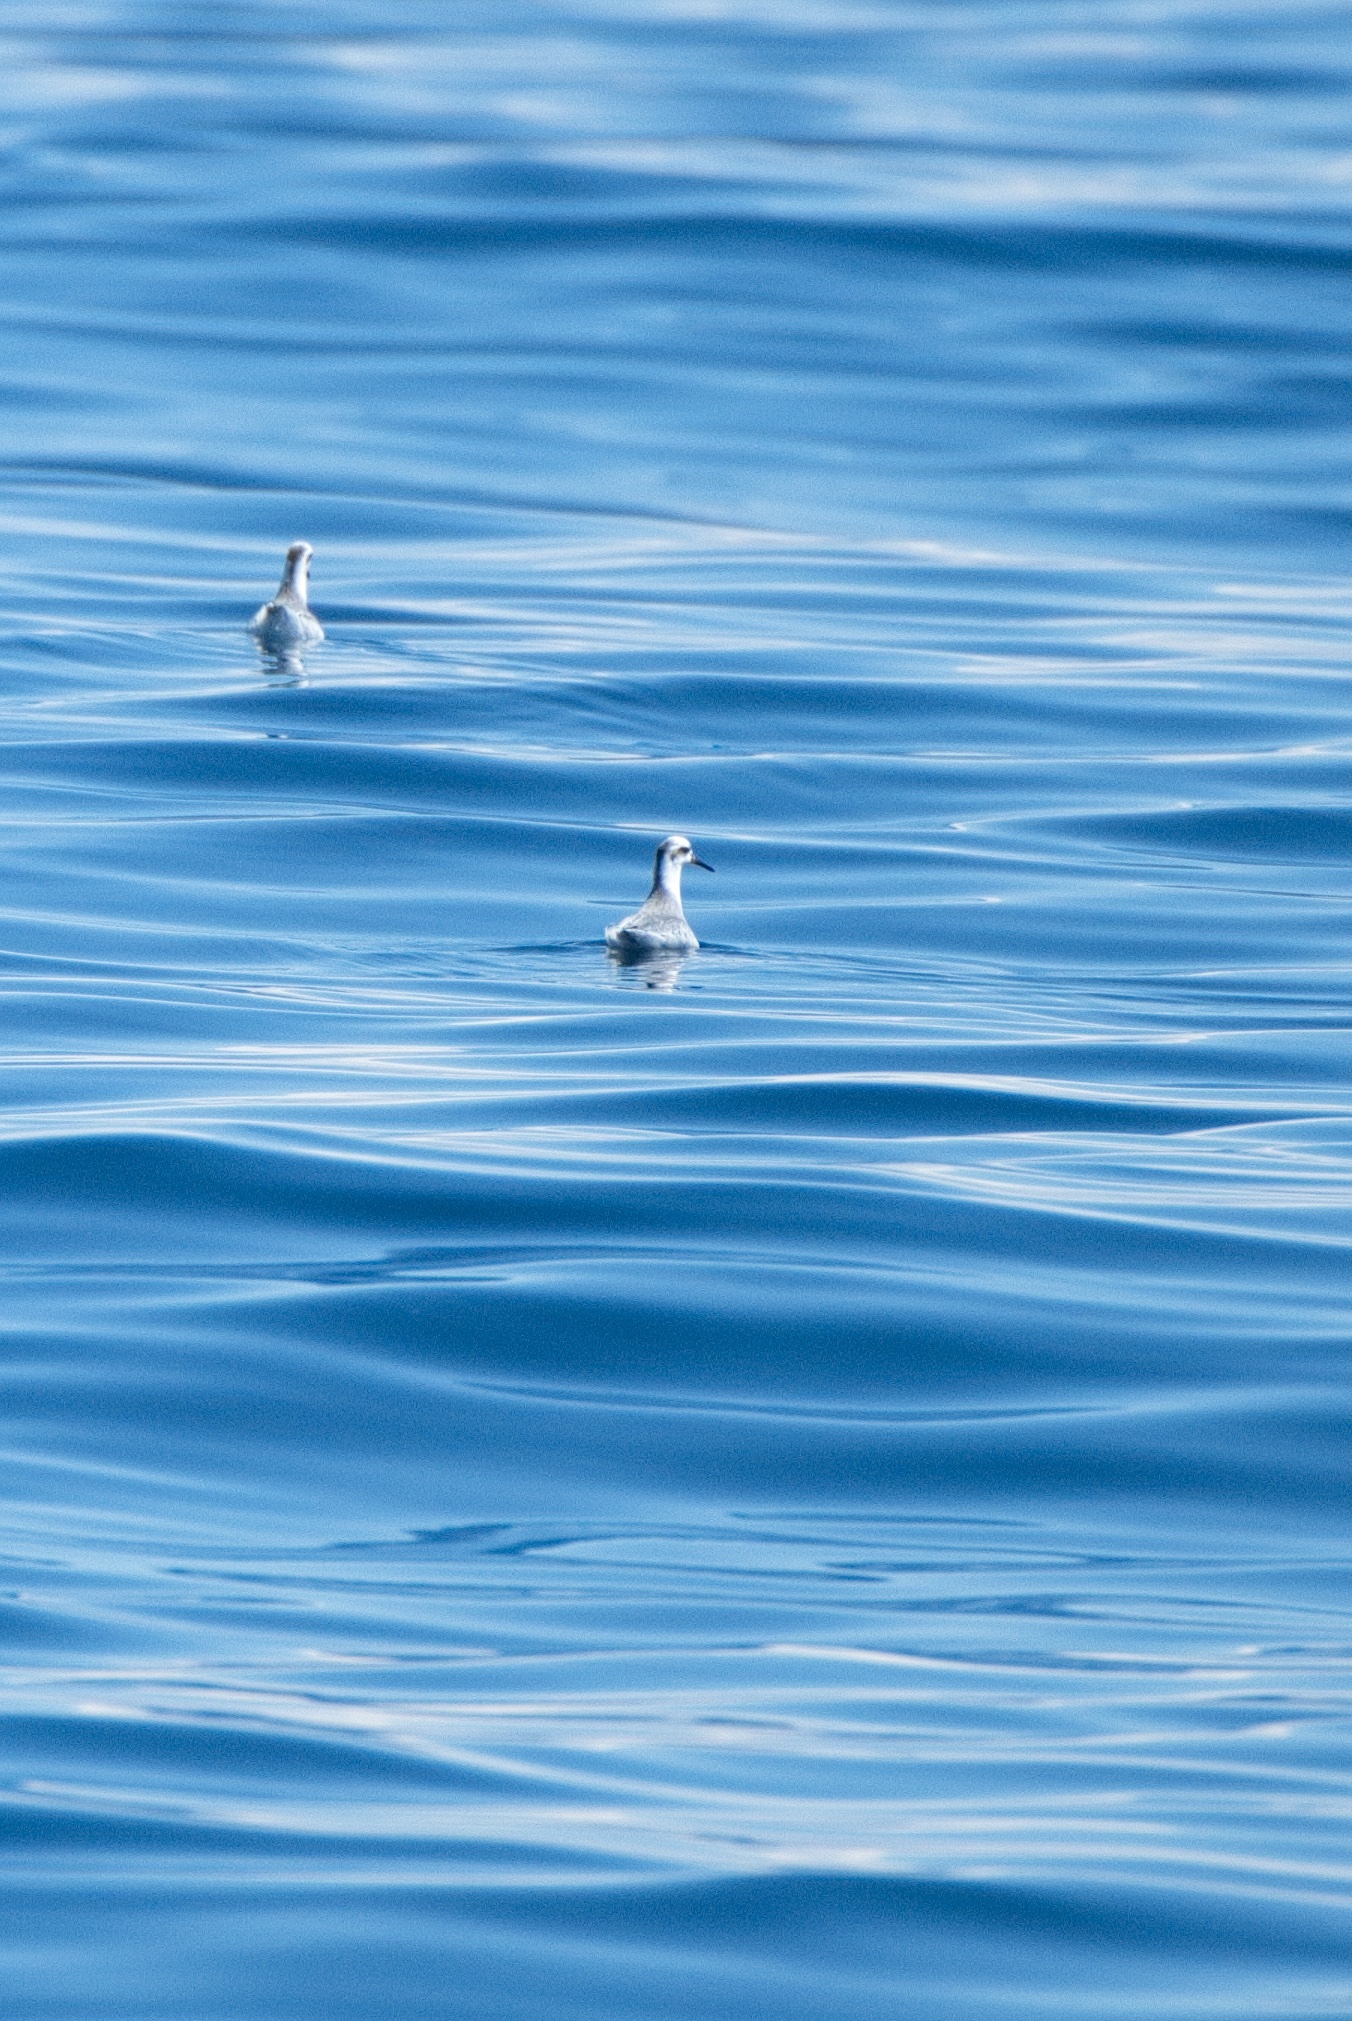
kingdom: Animalia
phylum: Chordata
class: Aves
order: Charadriiformes
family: Scolopacidae
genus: Phalaropus
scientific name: Phalaropus fulicarius
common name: Red phalarope
